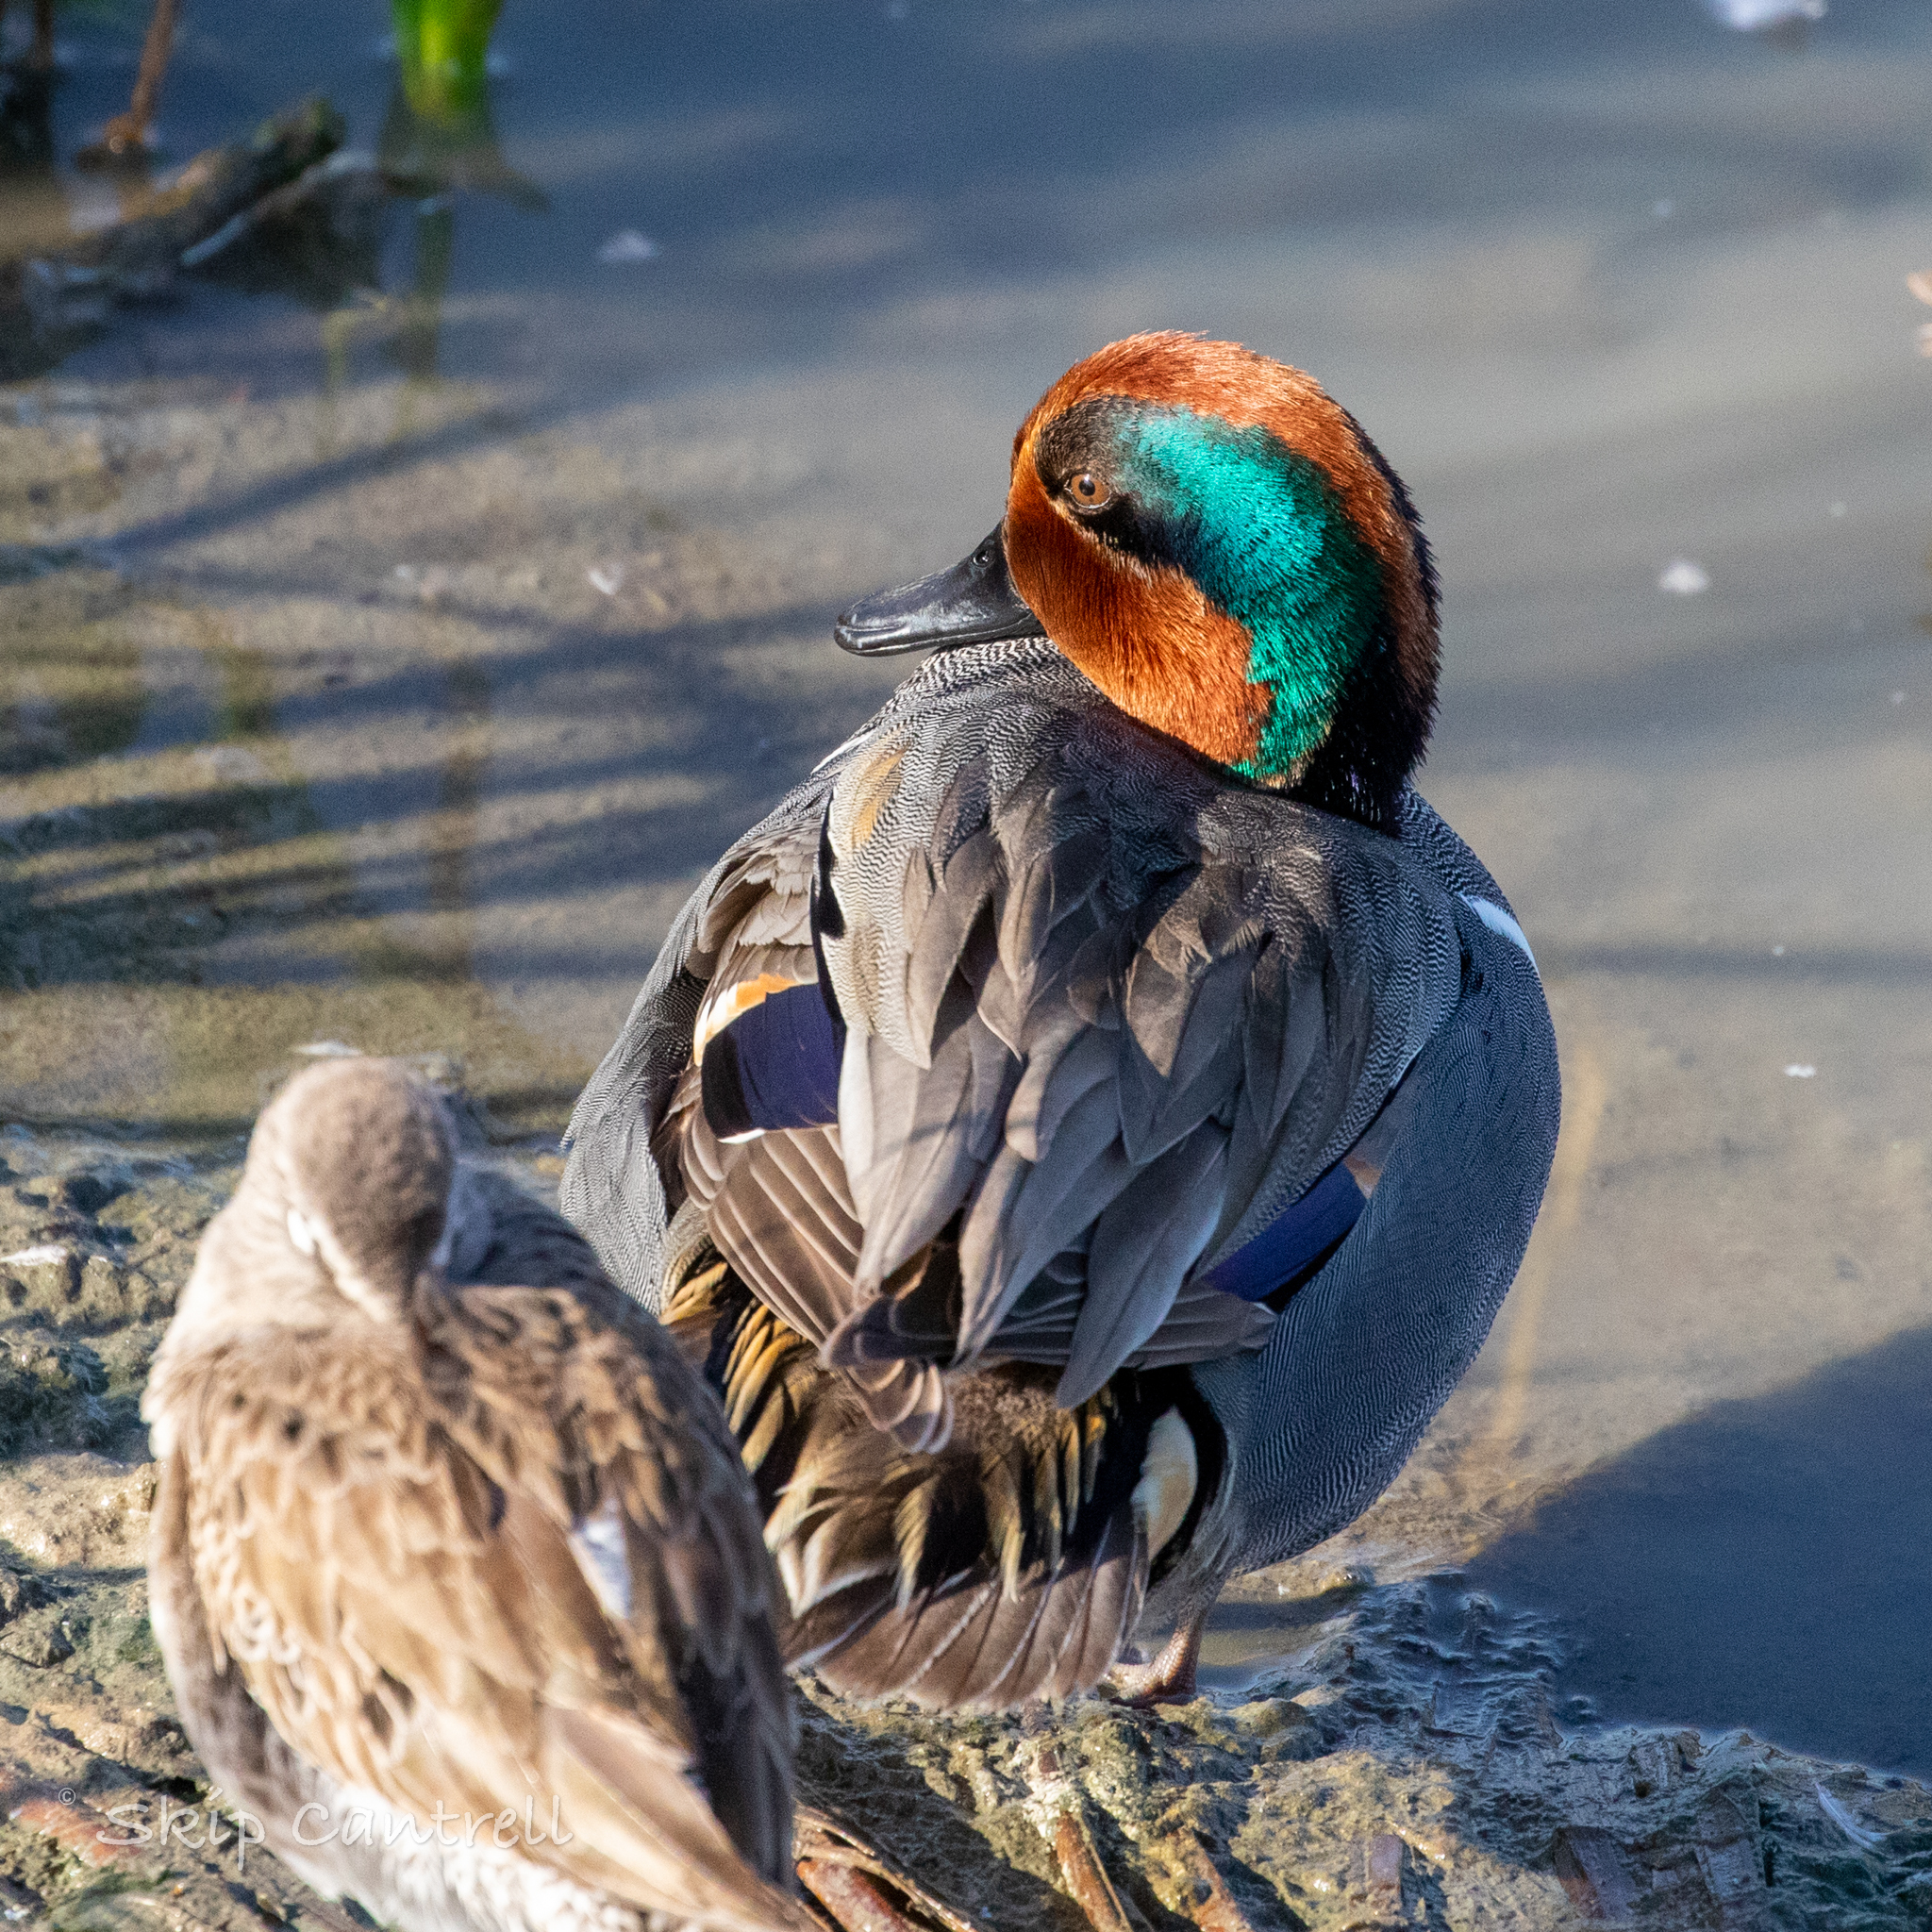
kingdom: Animalia
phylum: Chordata
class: Aves
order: Anseriformes
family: Anatidae
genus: Anas
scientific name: Anas crecca
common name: Eurasian teal
